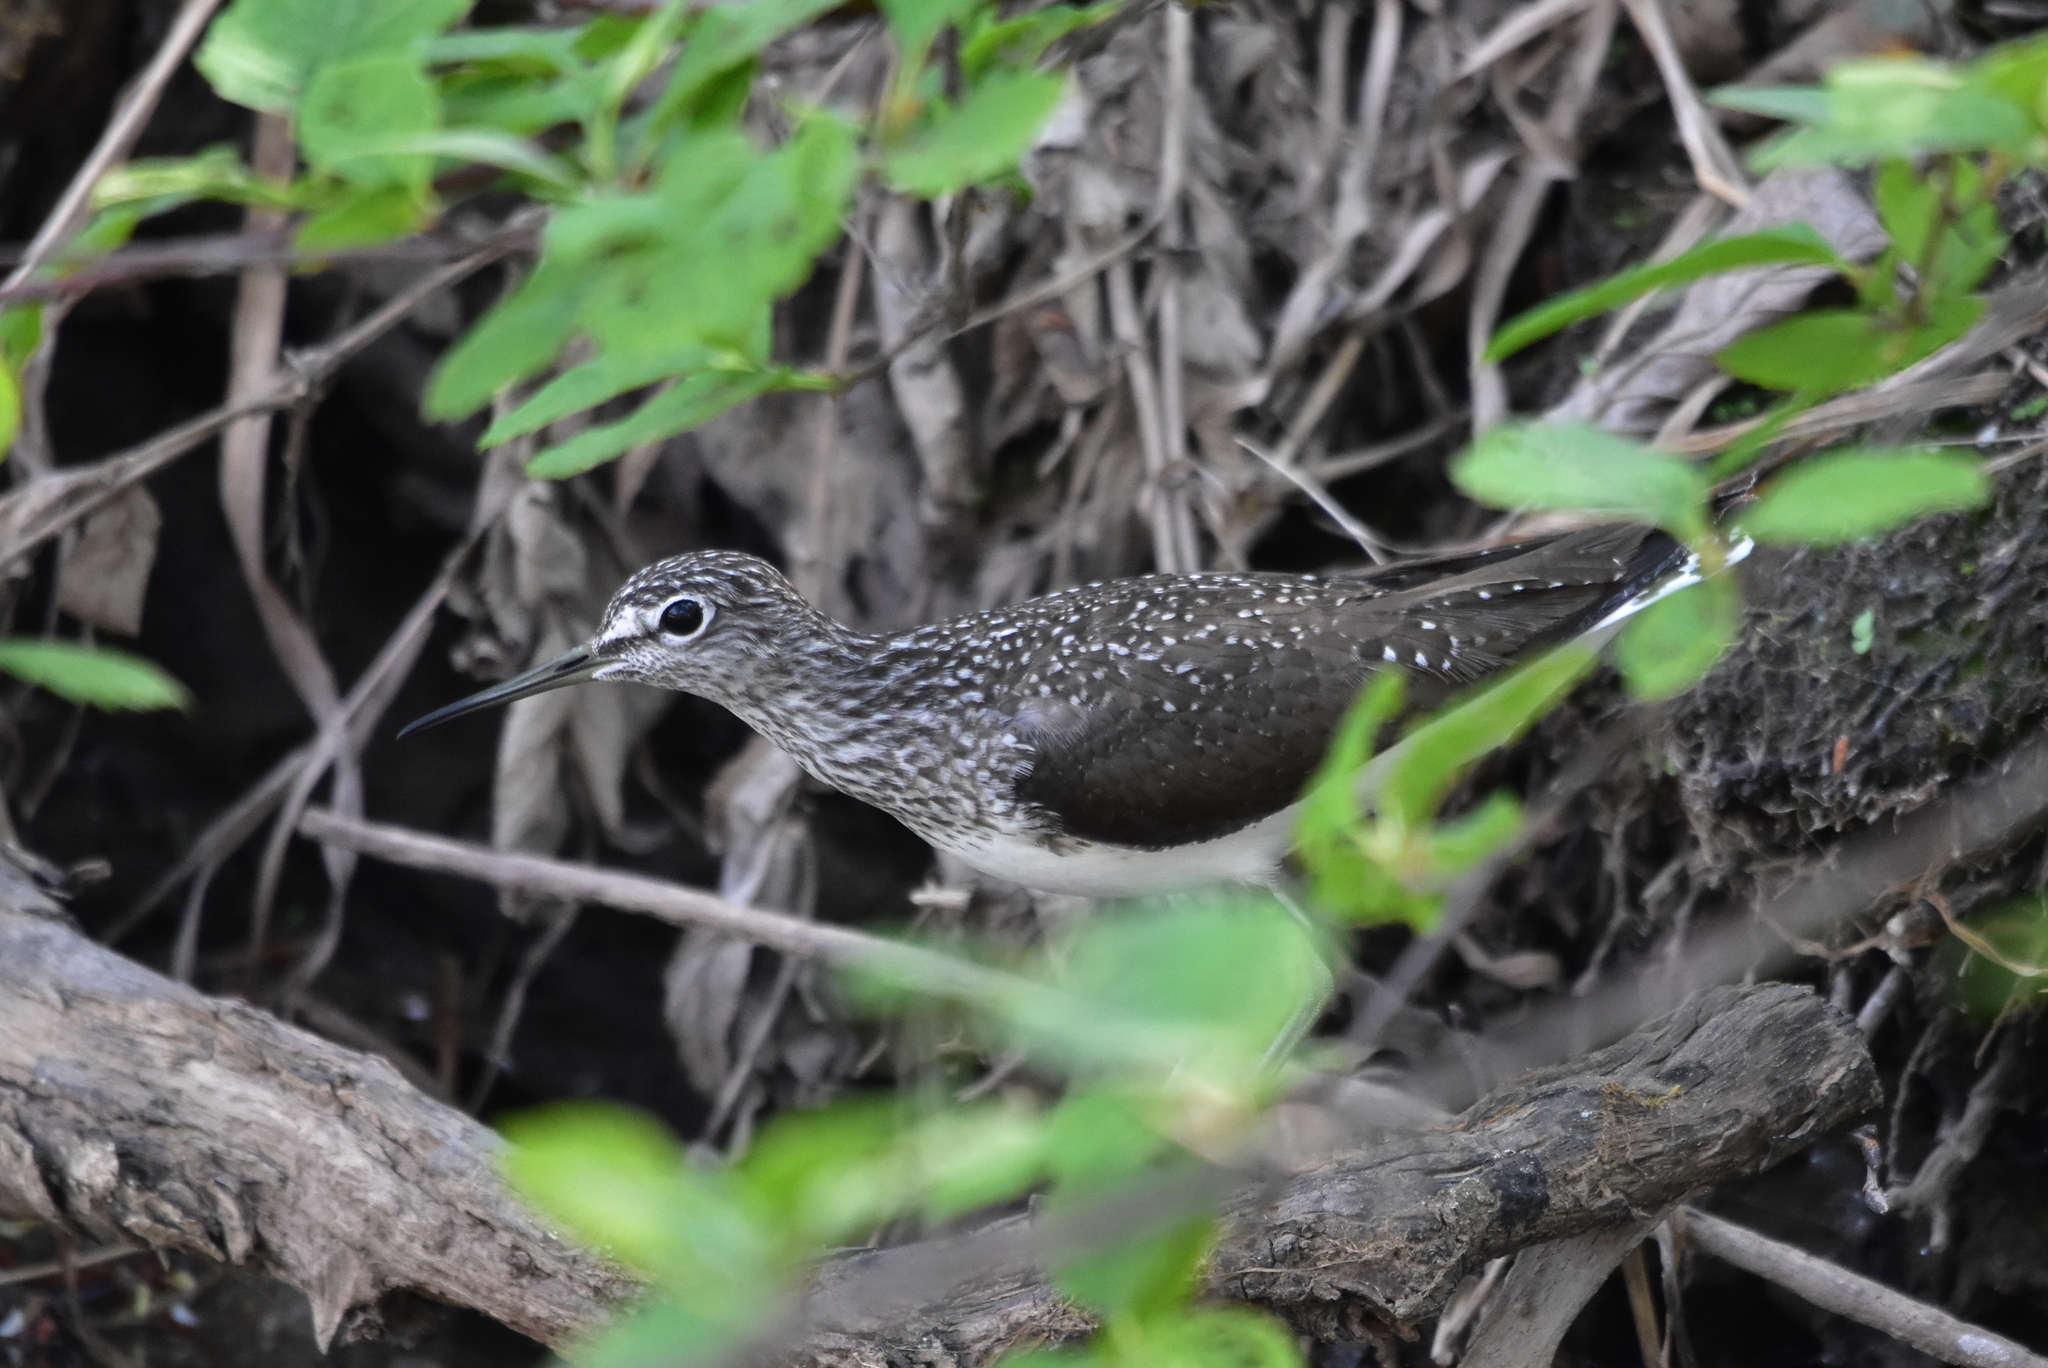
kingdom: Animalia
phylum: Chordata
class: Aves
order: Charadriiformes
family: Scolopacidae
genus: Tringa
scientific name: Tringa ochropus
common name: Green sandpiper
